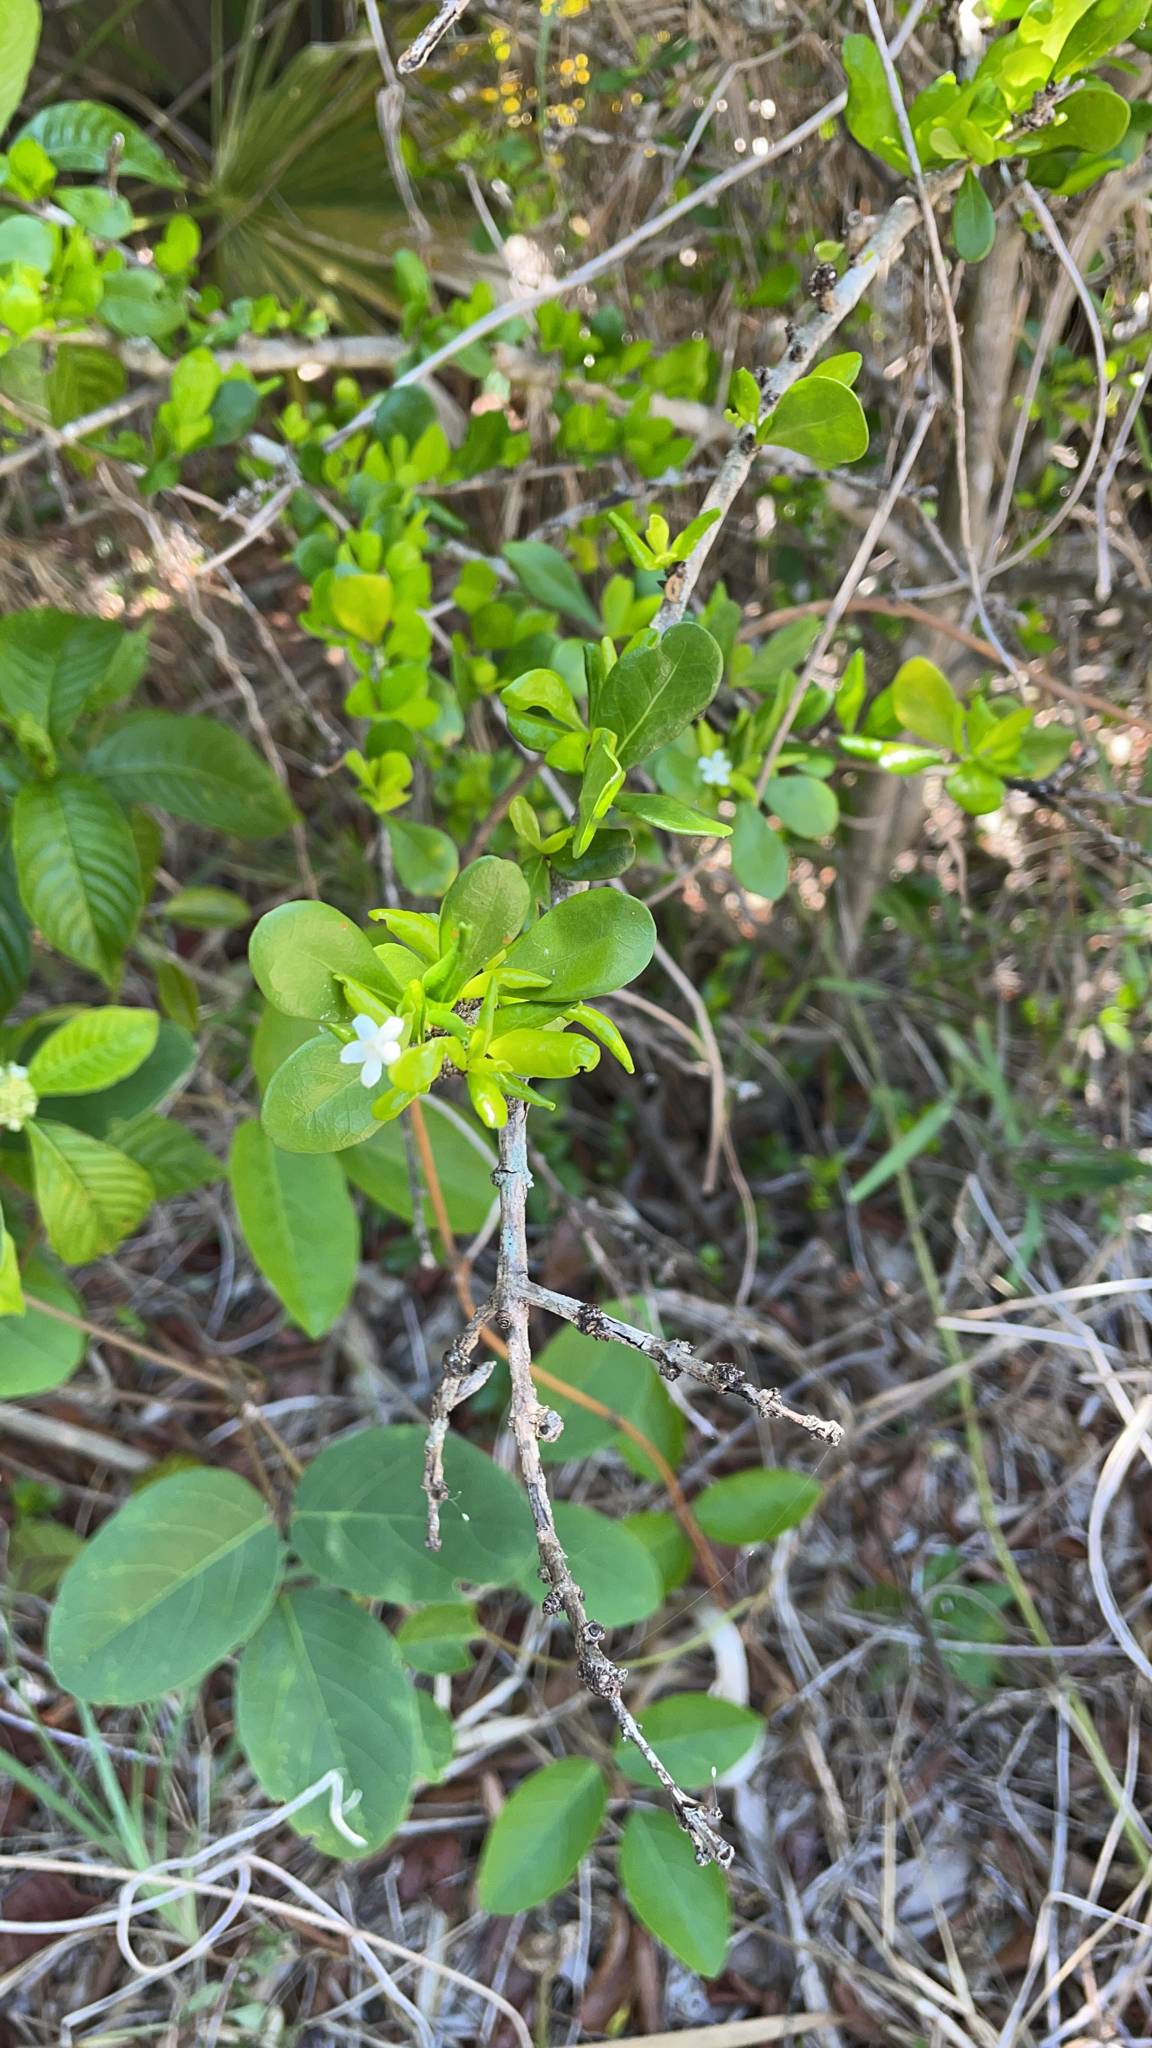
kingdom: Plantae
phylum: Tracheophyta
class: Magnoliopsida
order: Gentianales
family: Rubiaceae
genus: Randia
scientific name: Randia aculeata
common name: Inkberry
